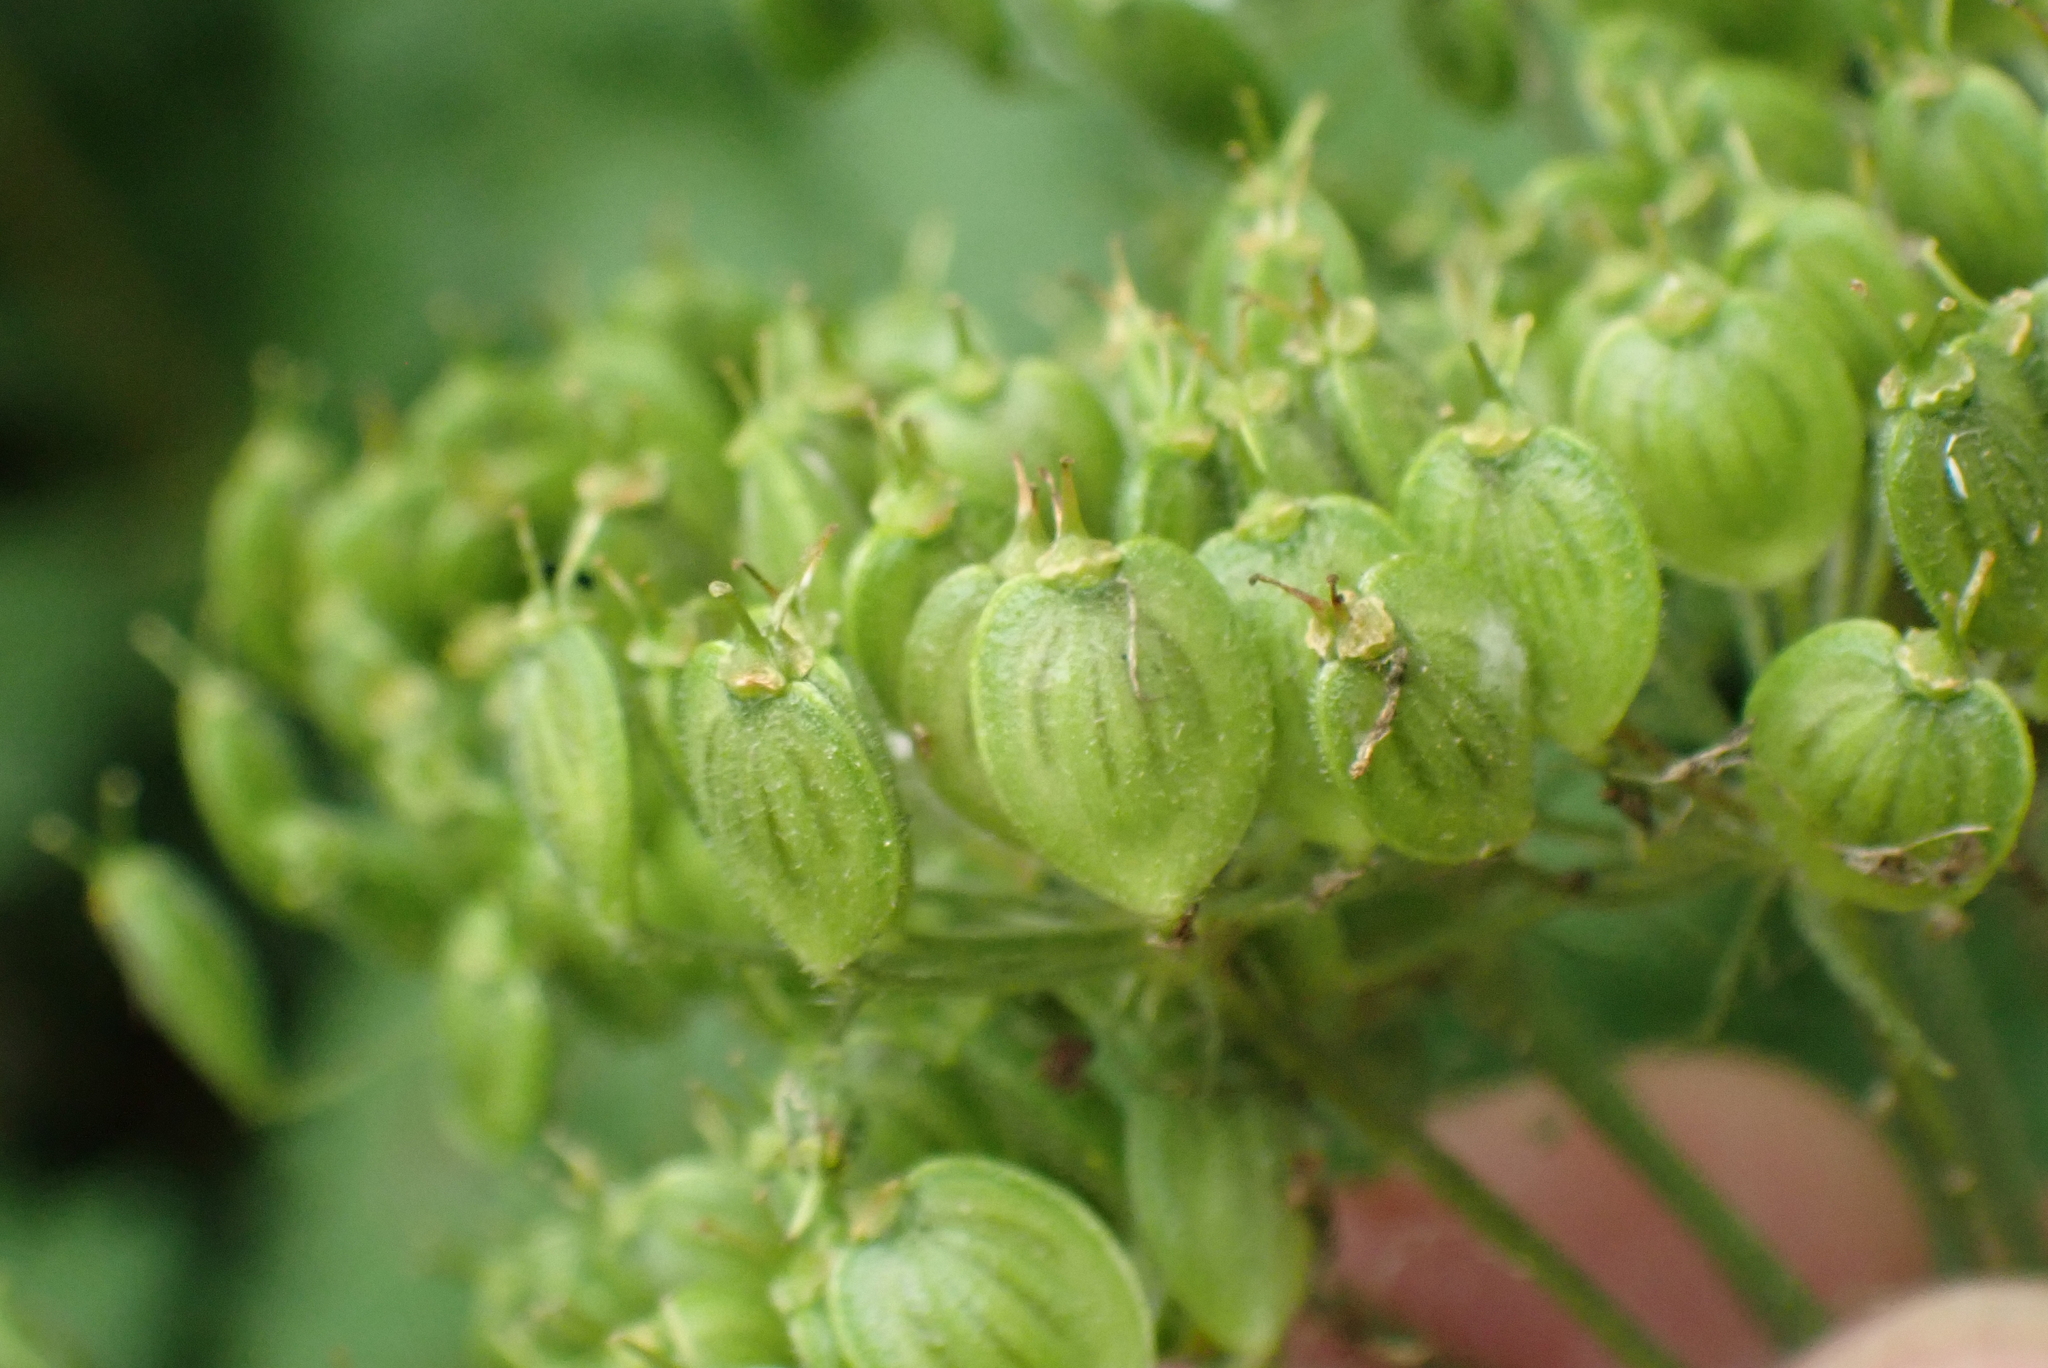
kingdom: Plantae
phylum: Tracheophyta
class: Magnoliopsida
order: Apiales
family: Apiaceae
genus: Heracleum
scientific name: Heracleum sphondylium
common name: Hogweed
